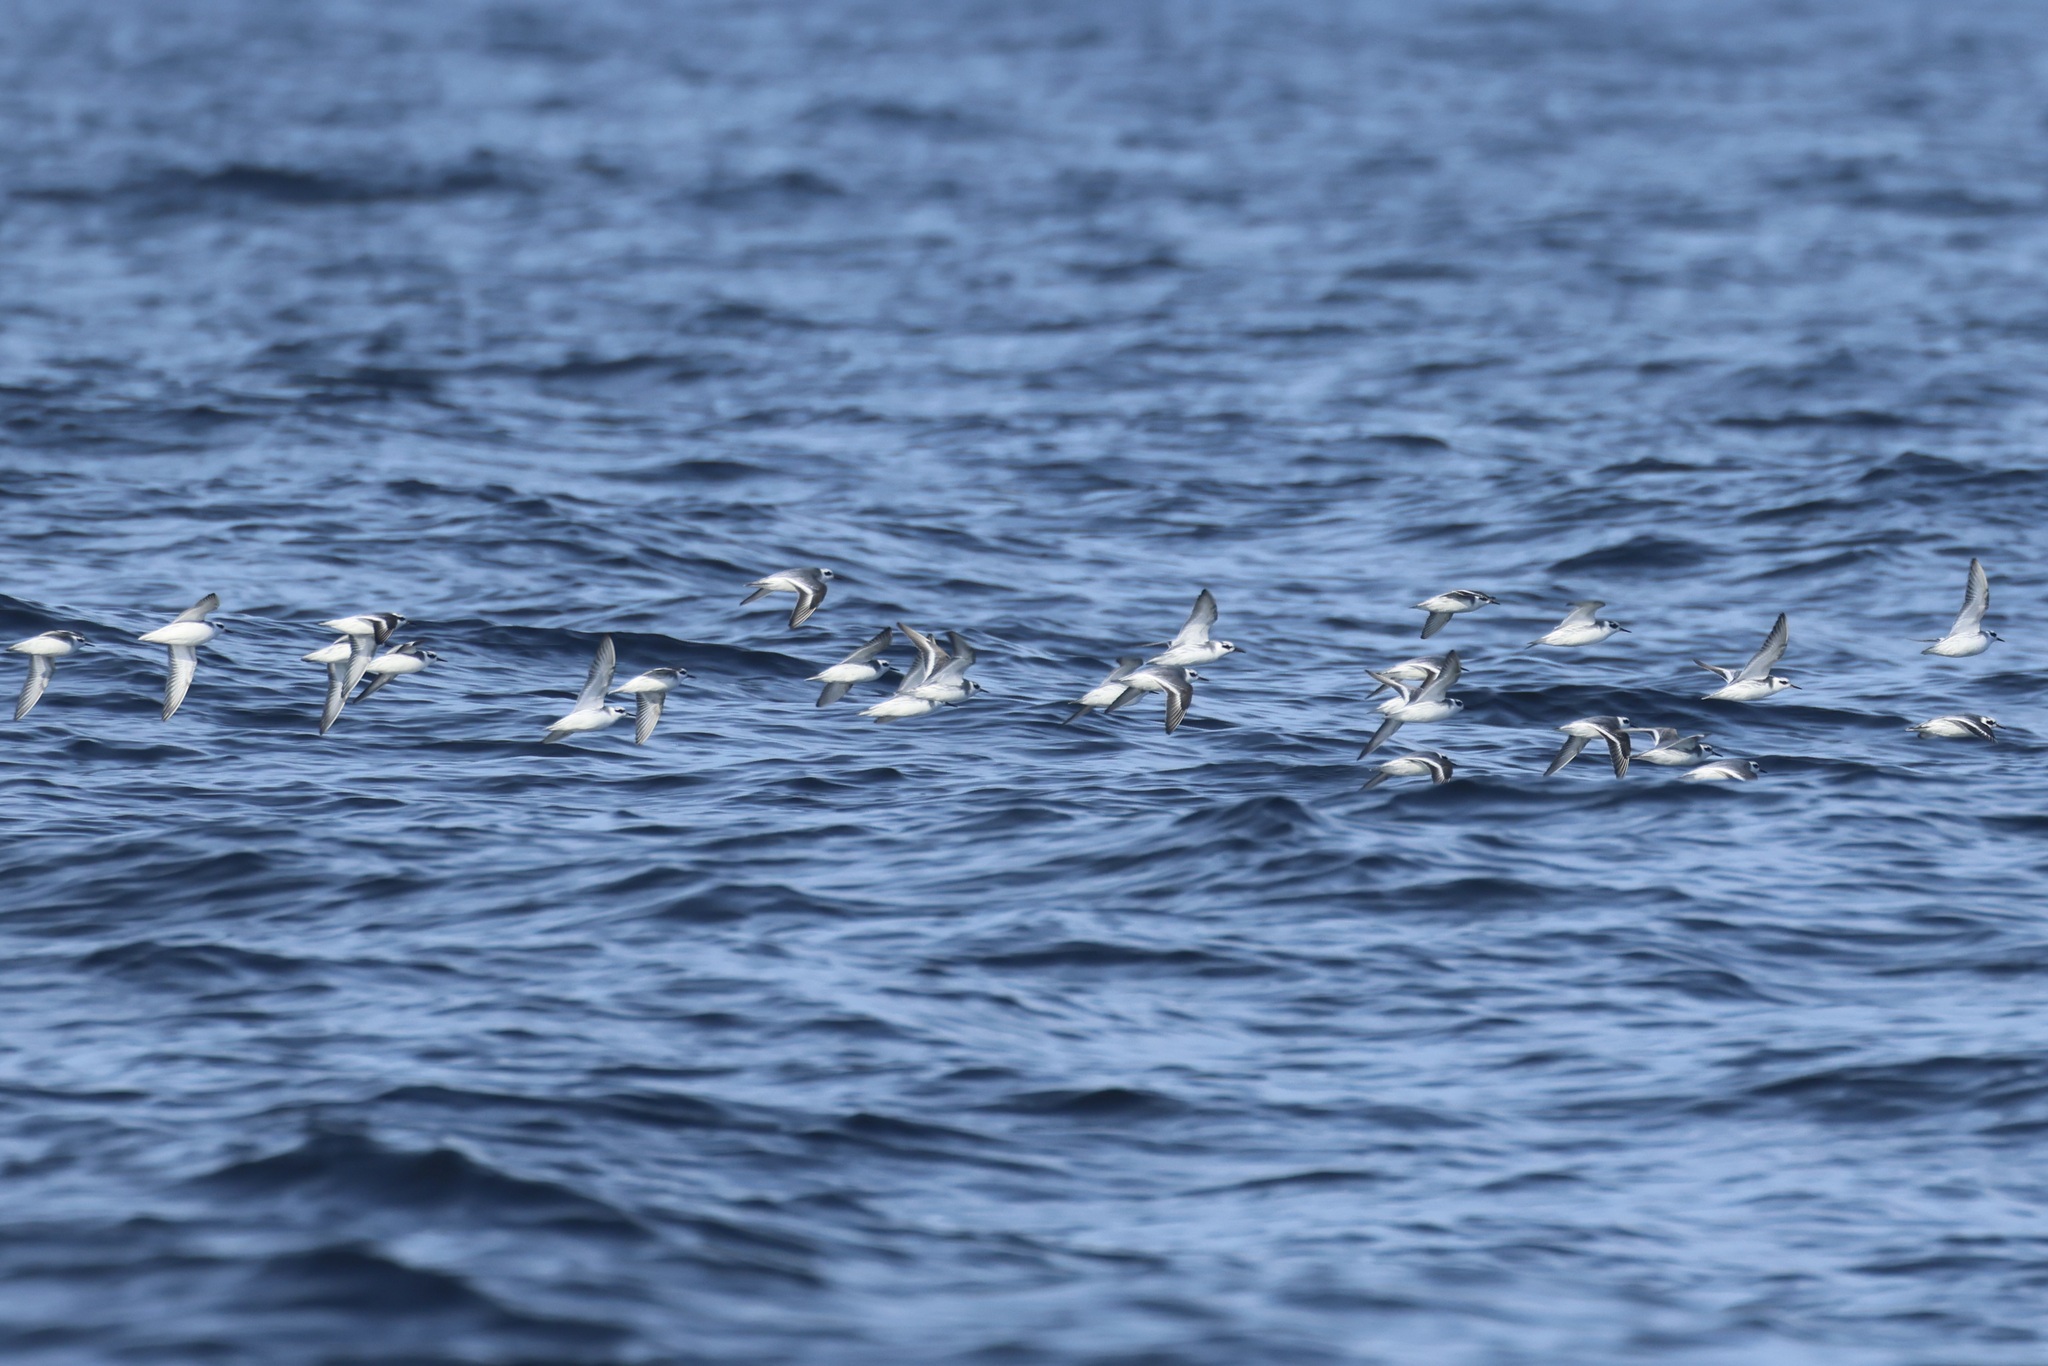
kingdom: Animalia
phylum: Chordata
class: Aves
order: Charadriiformes
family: Scolopacidae
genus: Phalaropus
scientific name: Phalaropus fulicarius
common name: Red phalarope
